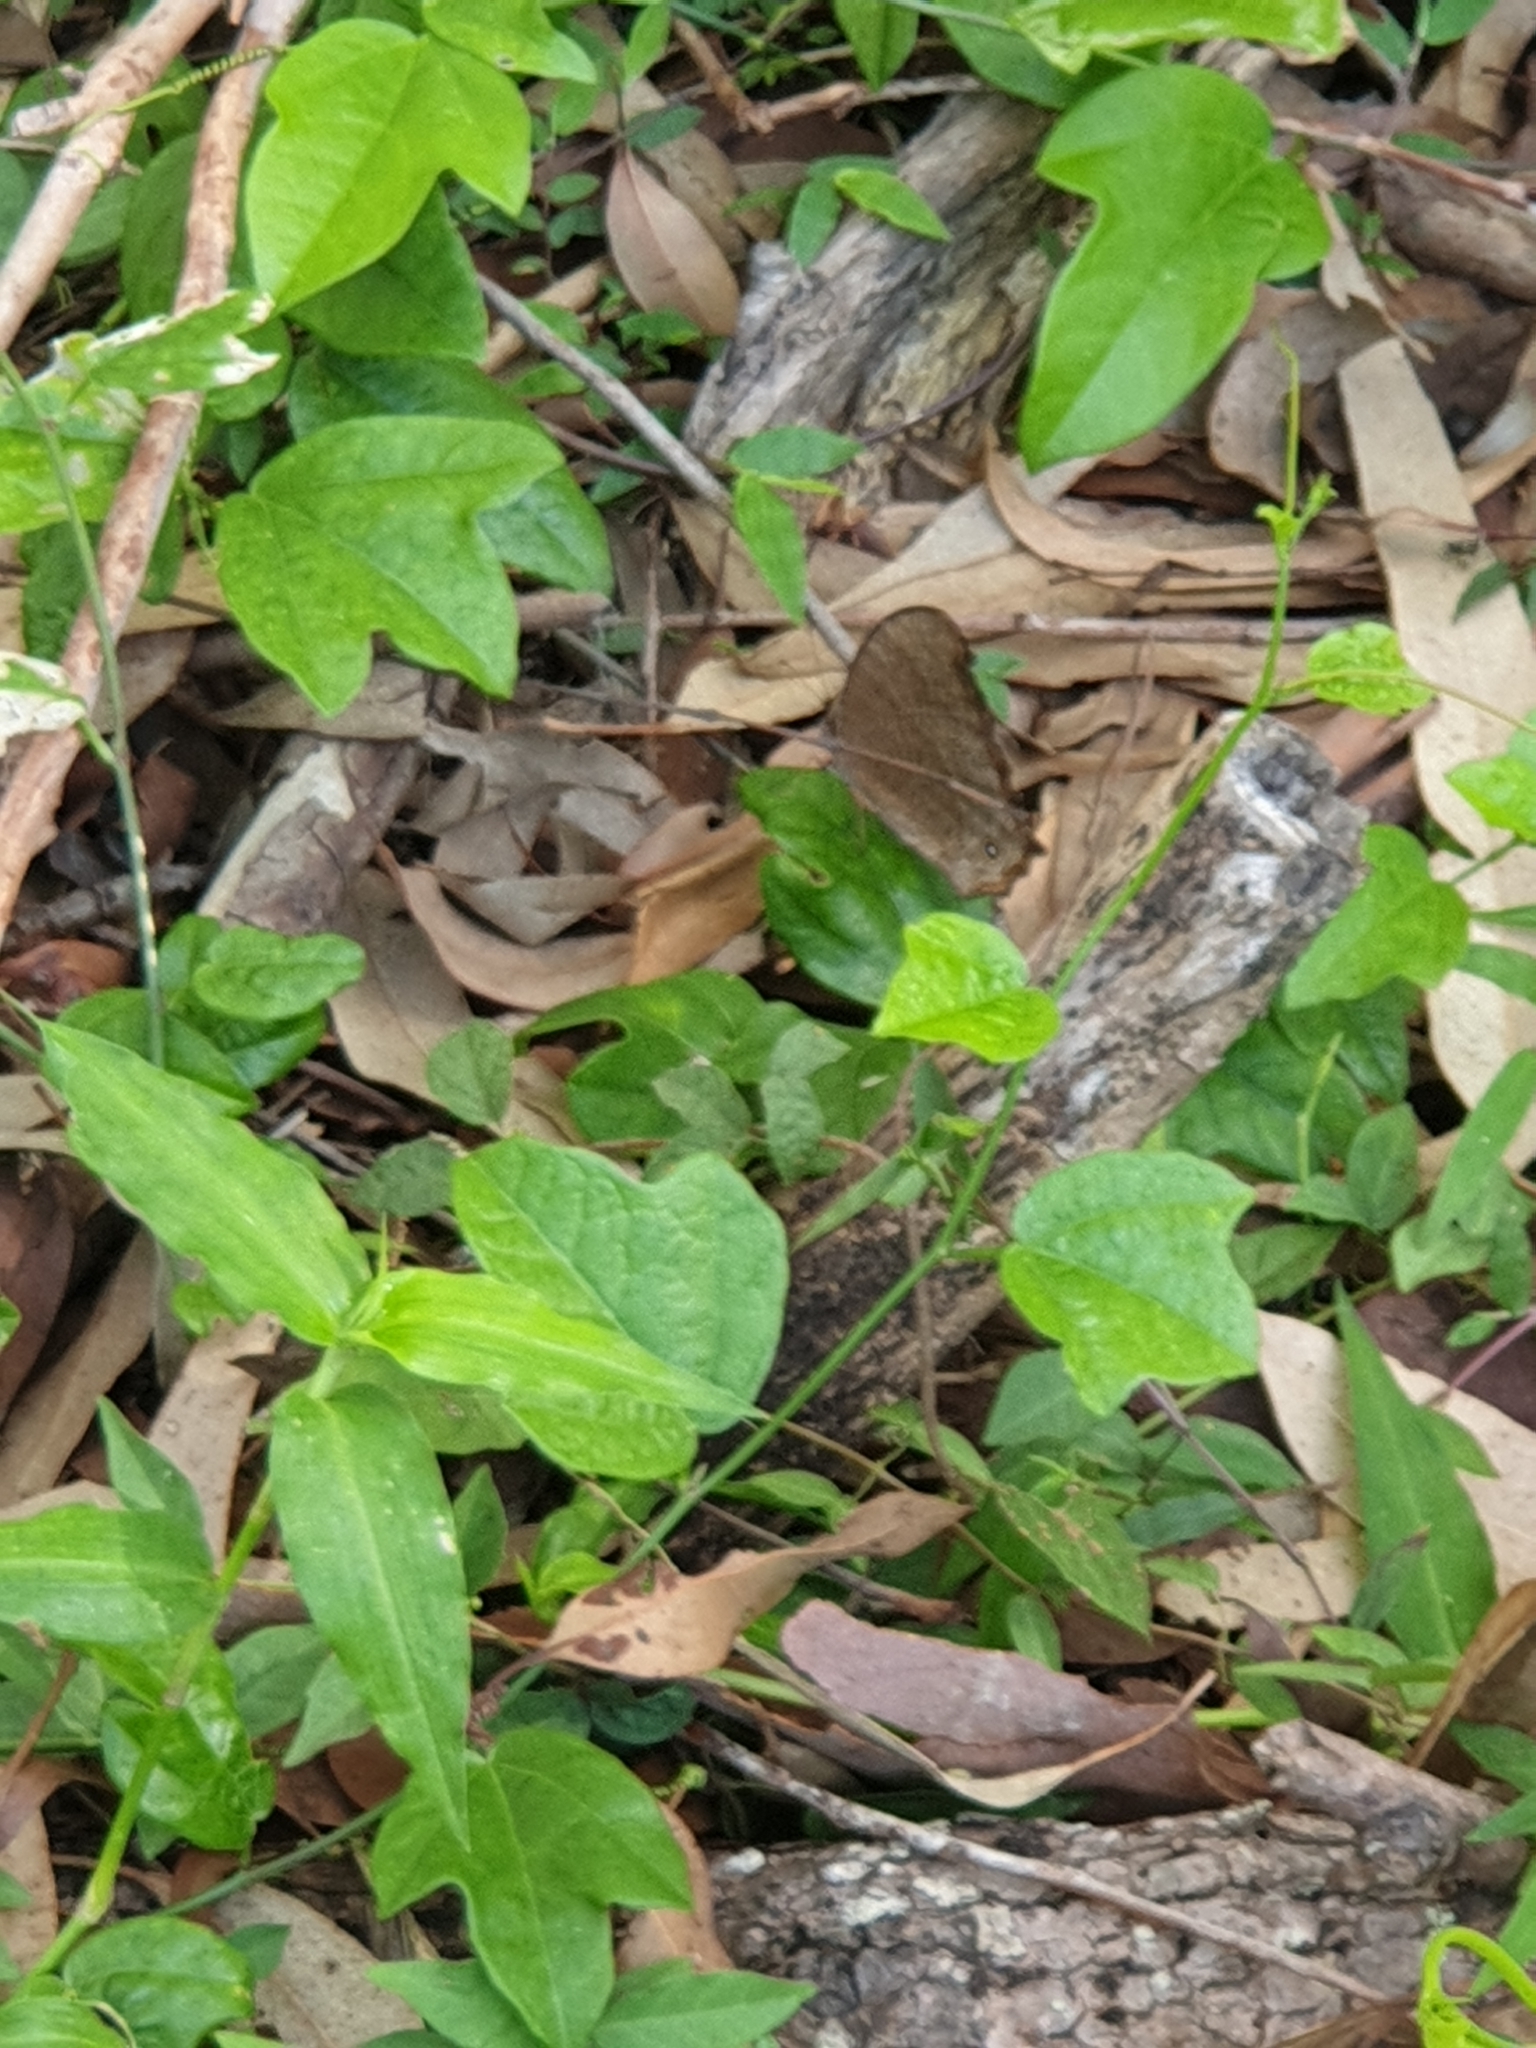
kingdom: Animalia
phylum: Arthropoda
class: Insecta
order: Lepidoptera
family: Nymphalidae
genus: Melanitis
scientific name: Melanitis leda
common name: Twilight brown
